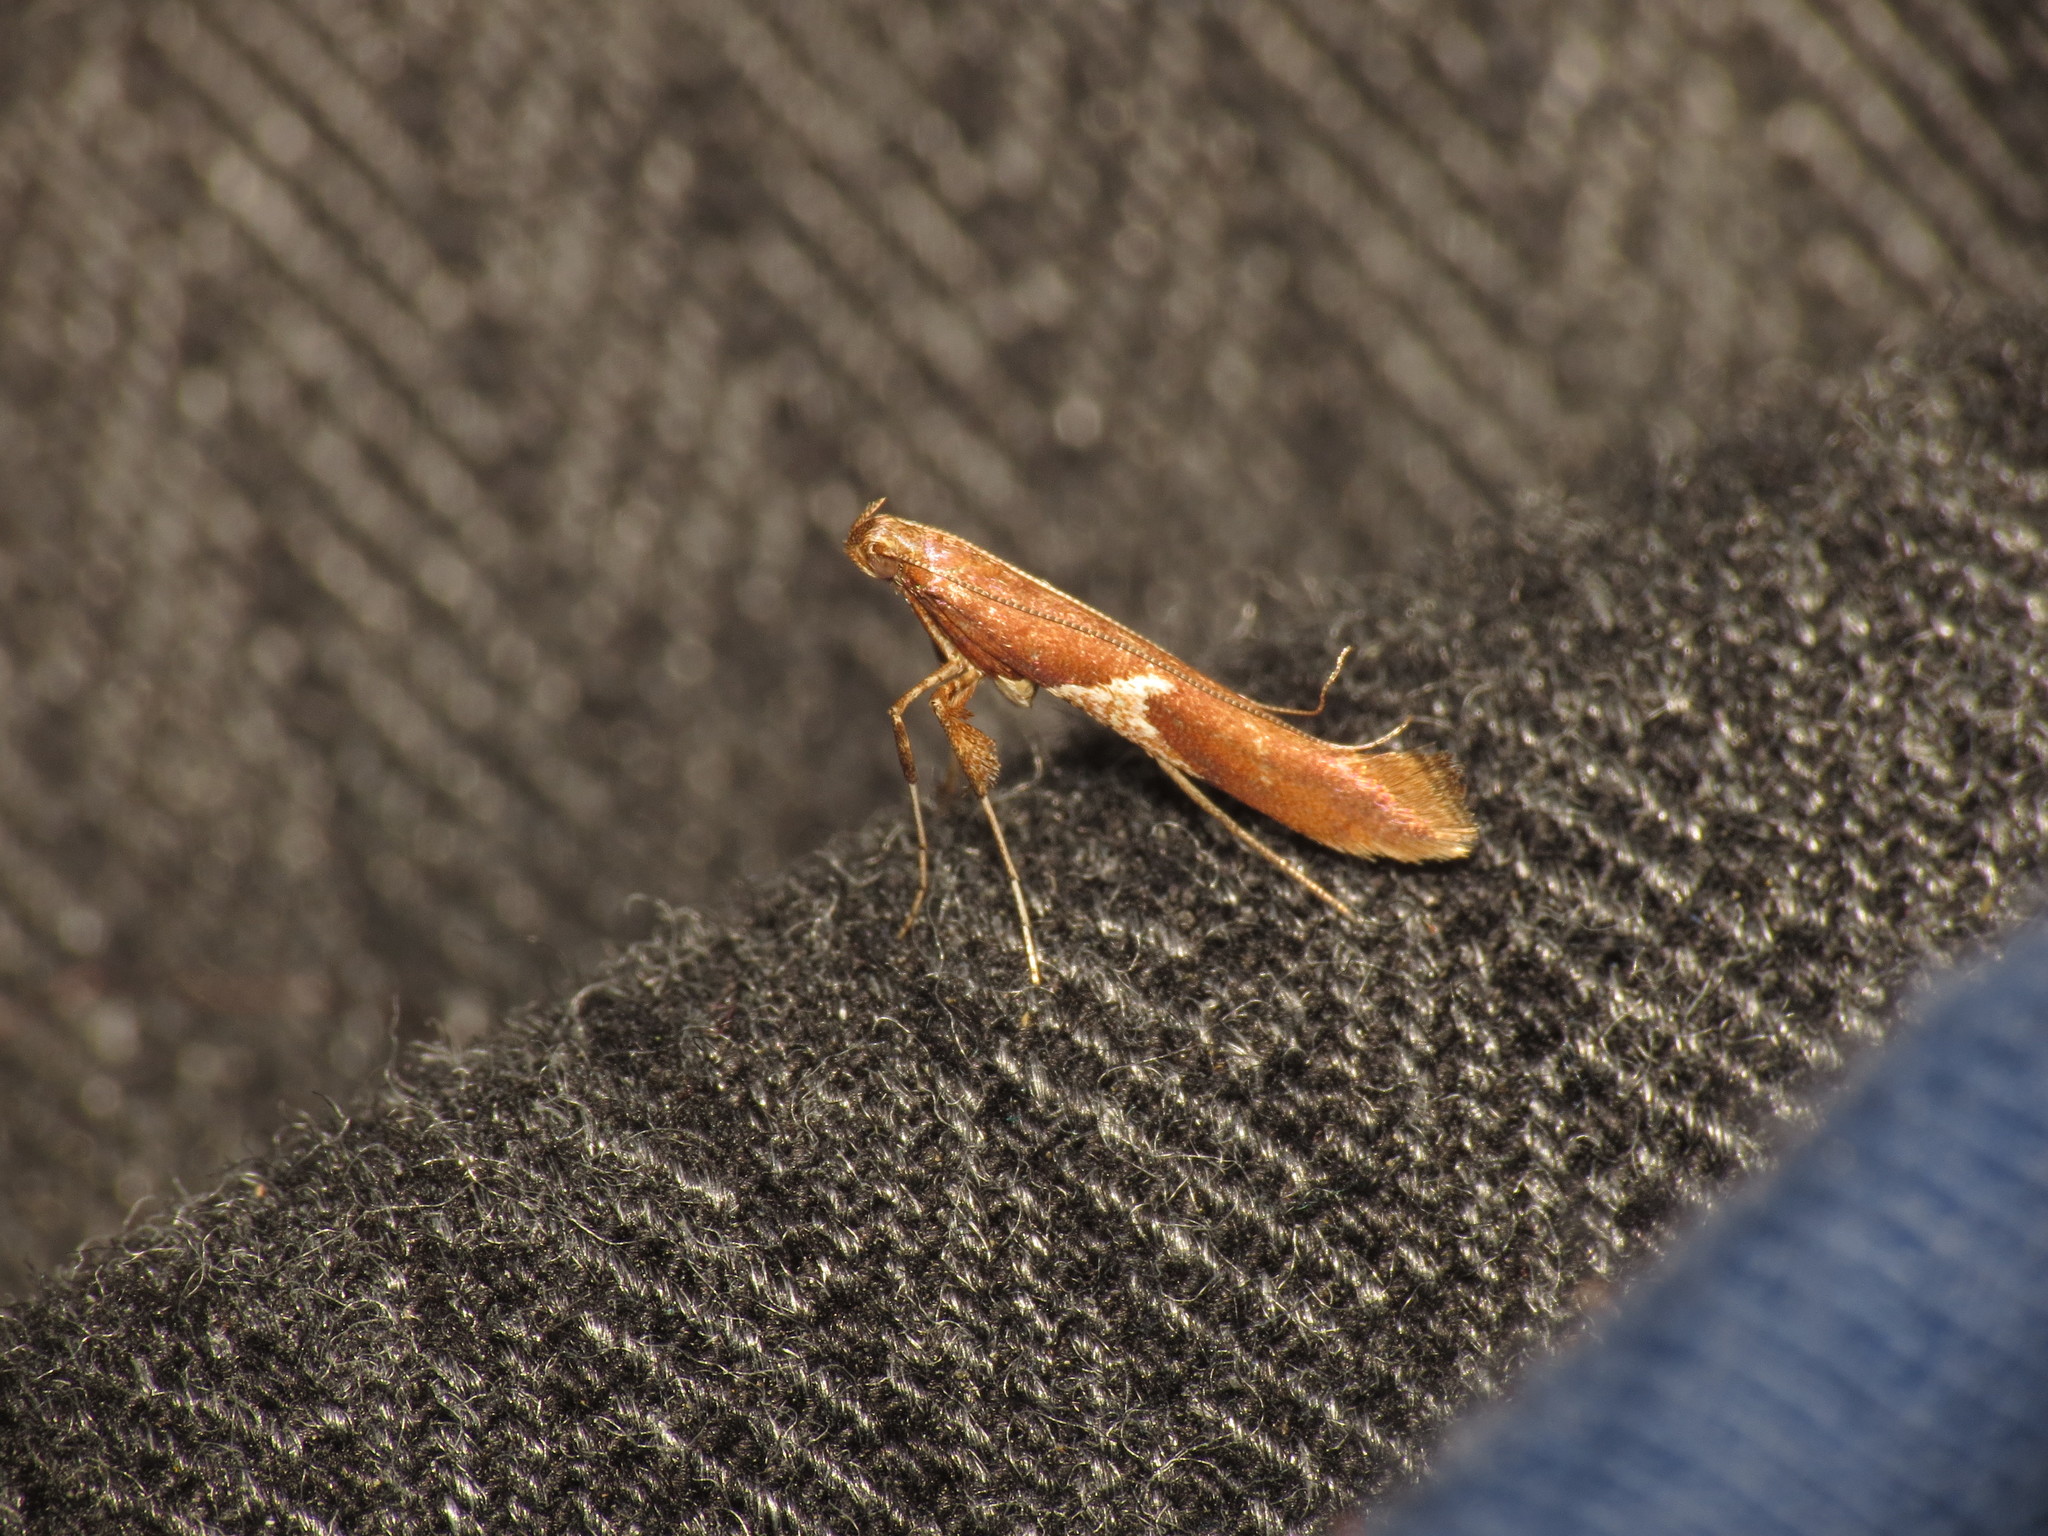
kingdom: Animalia
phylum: Arthropoda
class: Insecta
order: Lepidoptera
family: Gracillariidae
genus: Caloptilia
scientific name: Caloptilia stigmatella
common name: White-triangle slender
